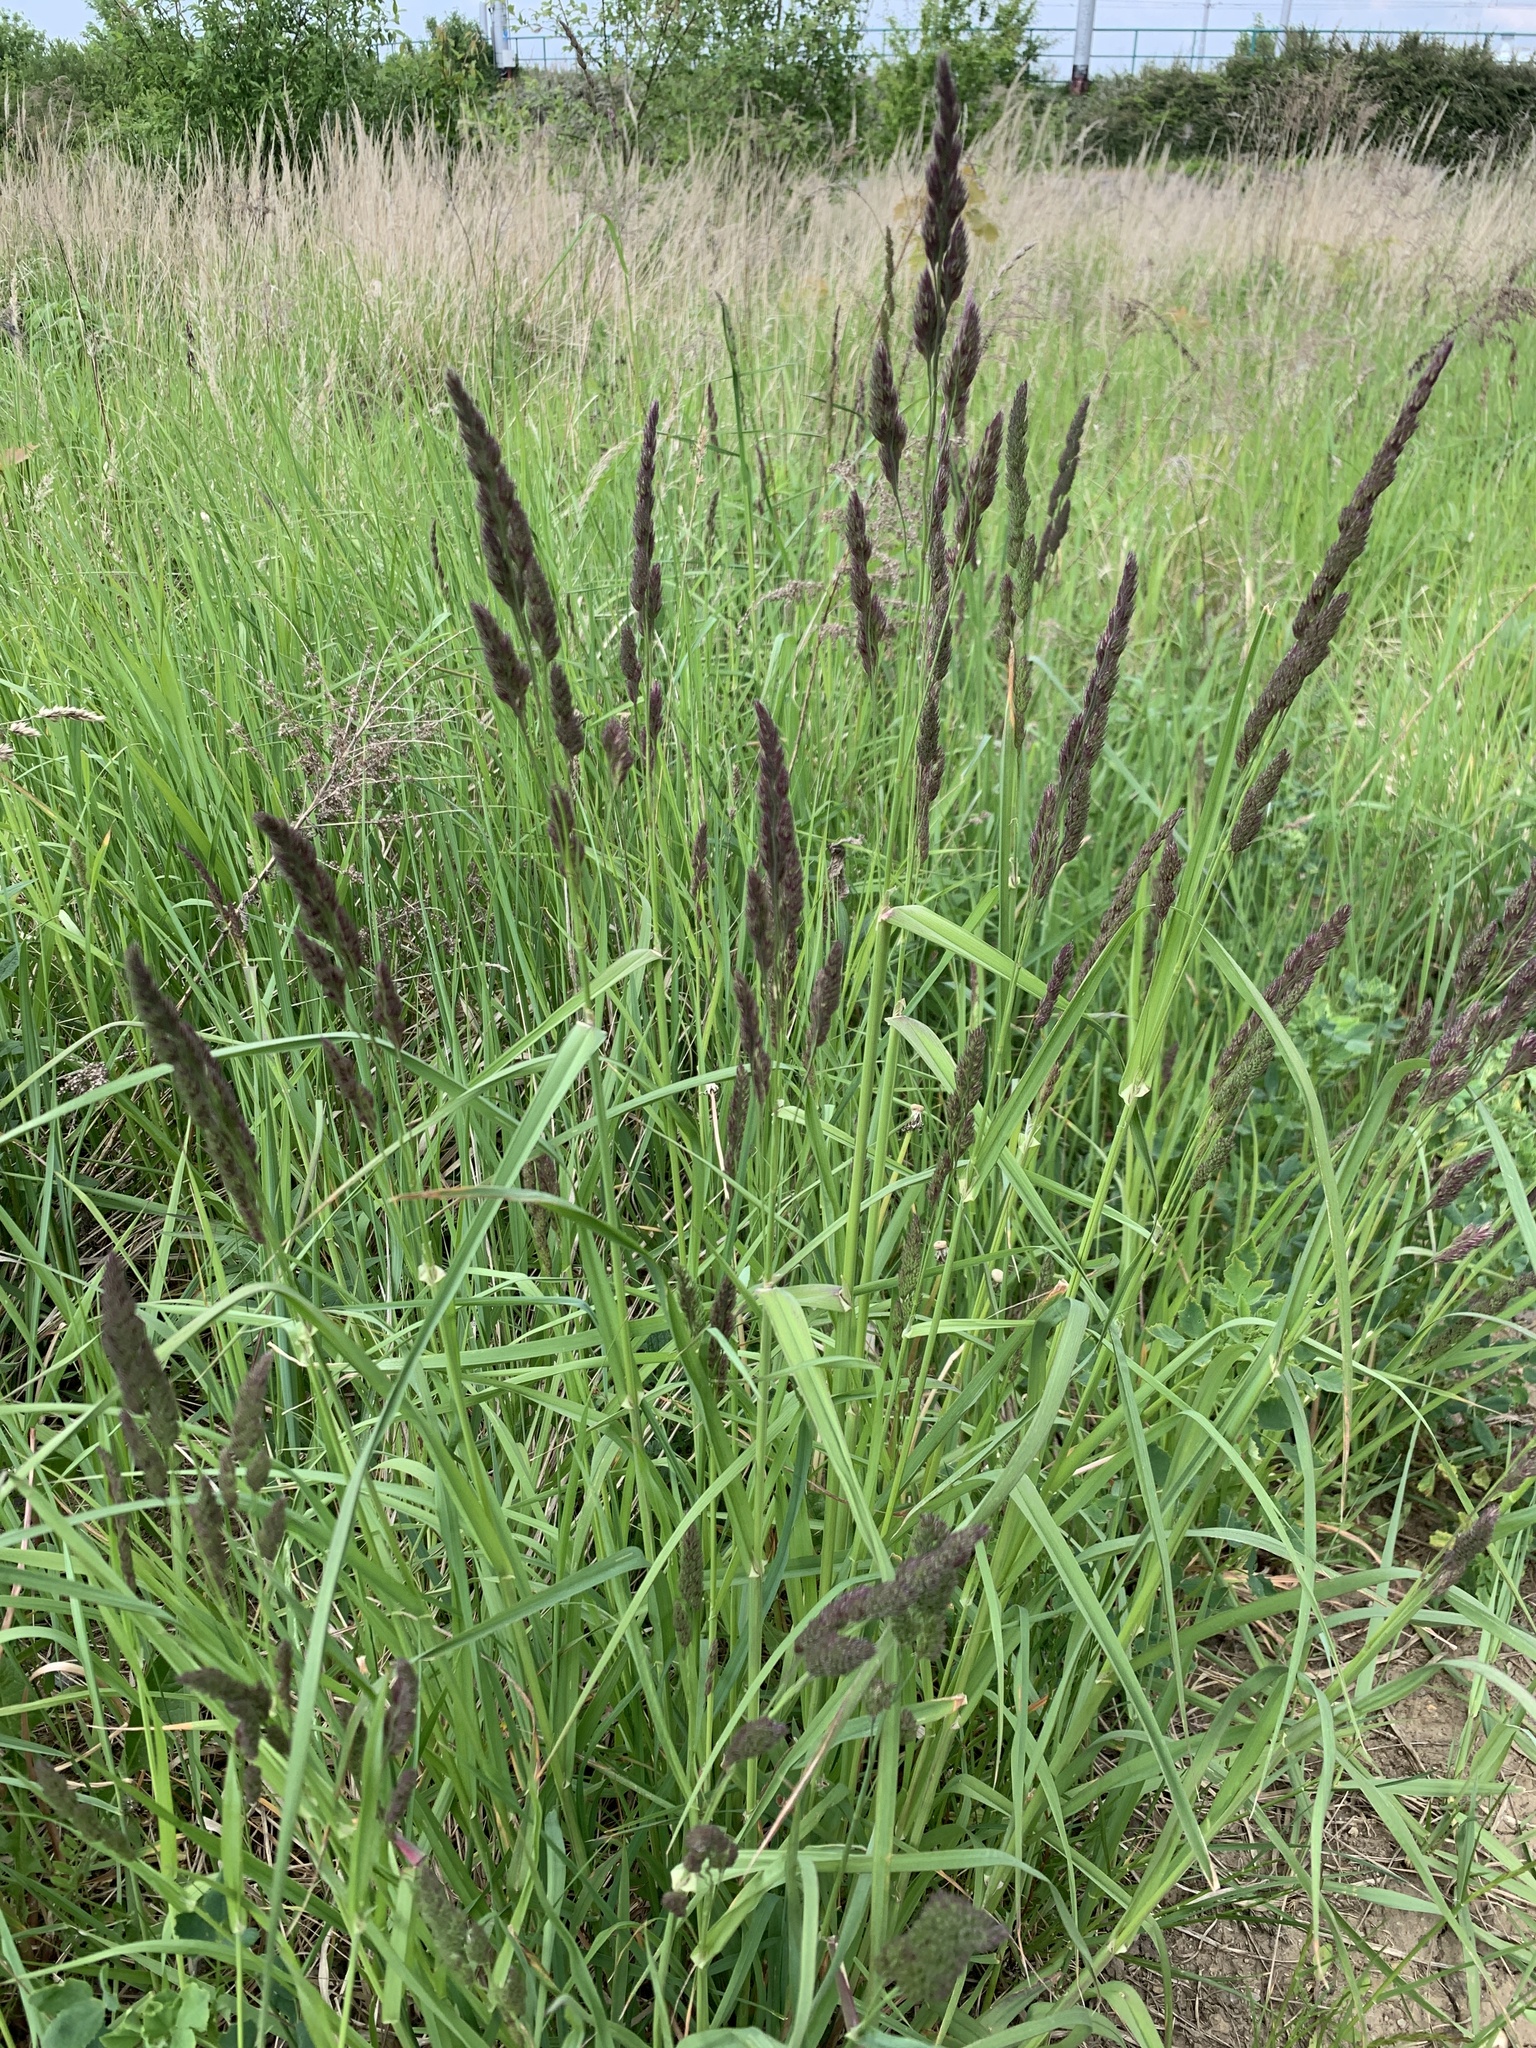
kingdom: Plantae
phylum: Tracheophyta
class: Liliopsida
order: Poales
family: Poaceae
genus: Dactylis
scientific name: Dactylis glomerata
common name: Orchardgrass
